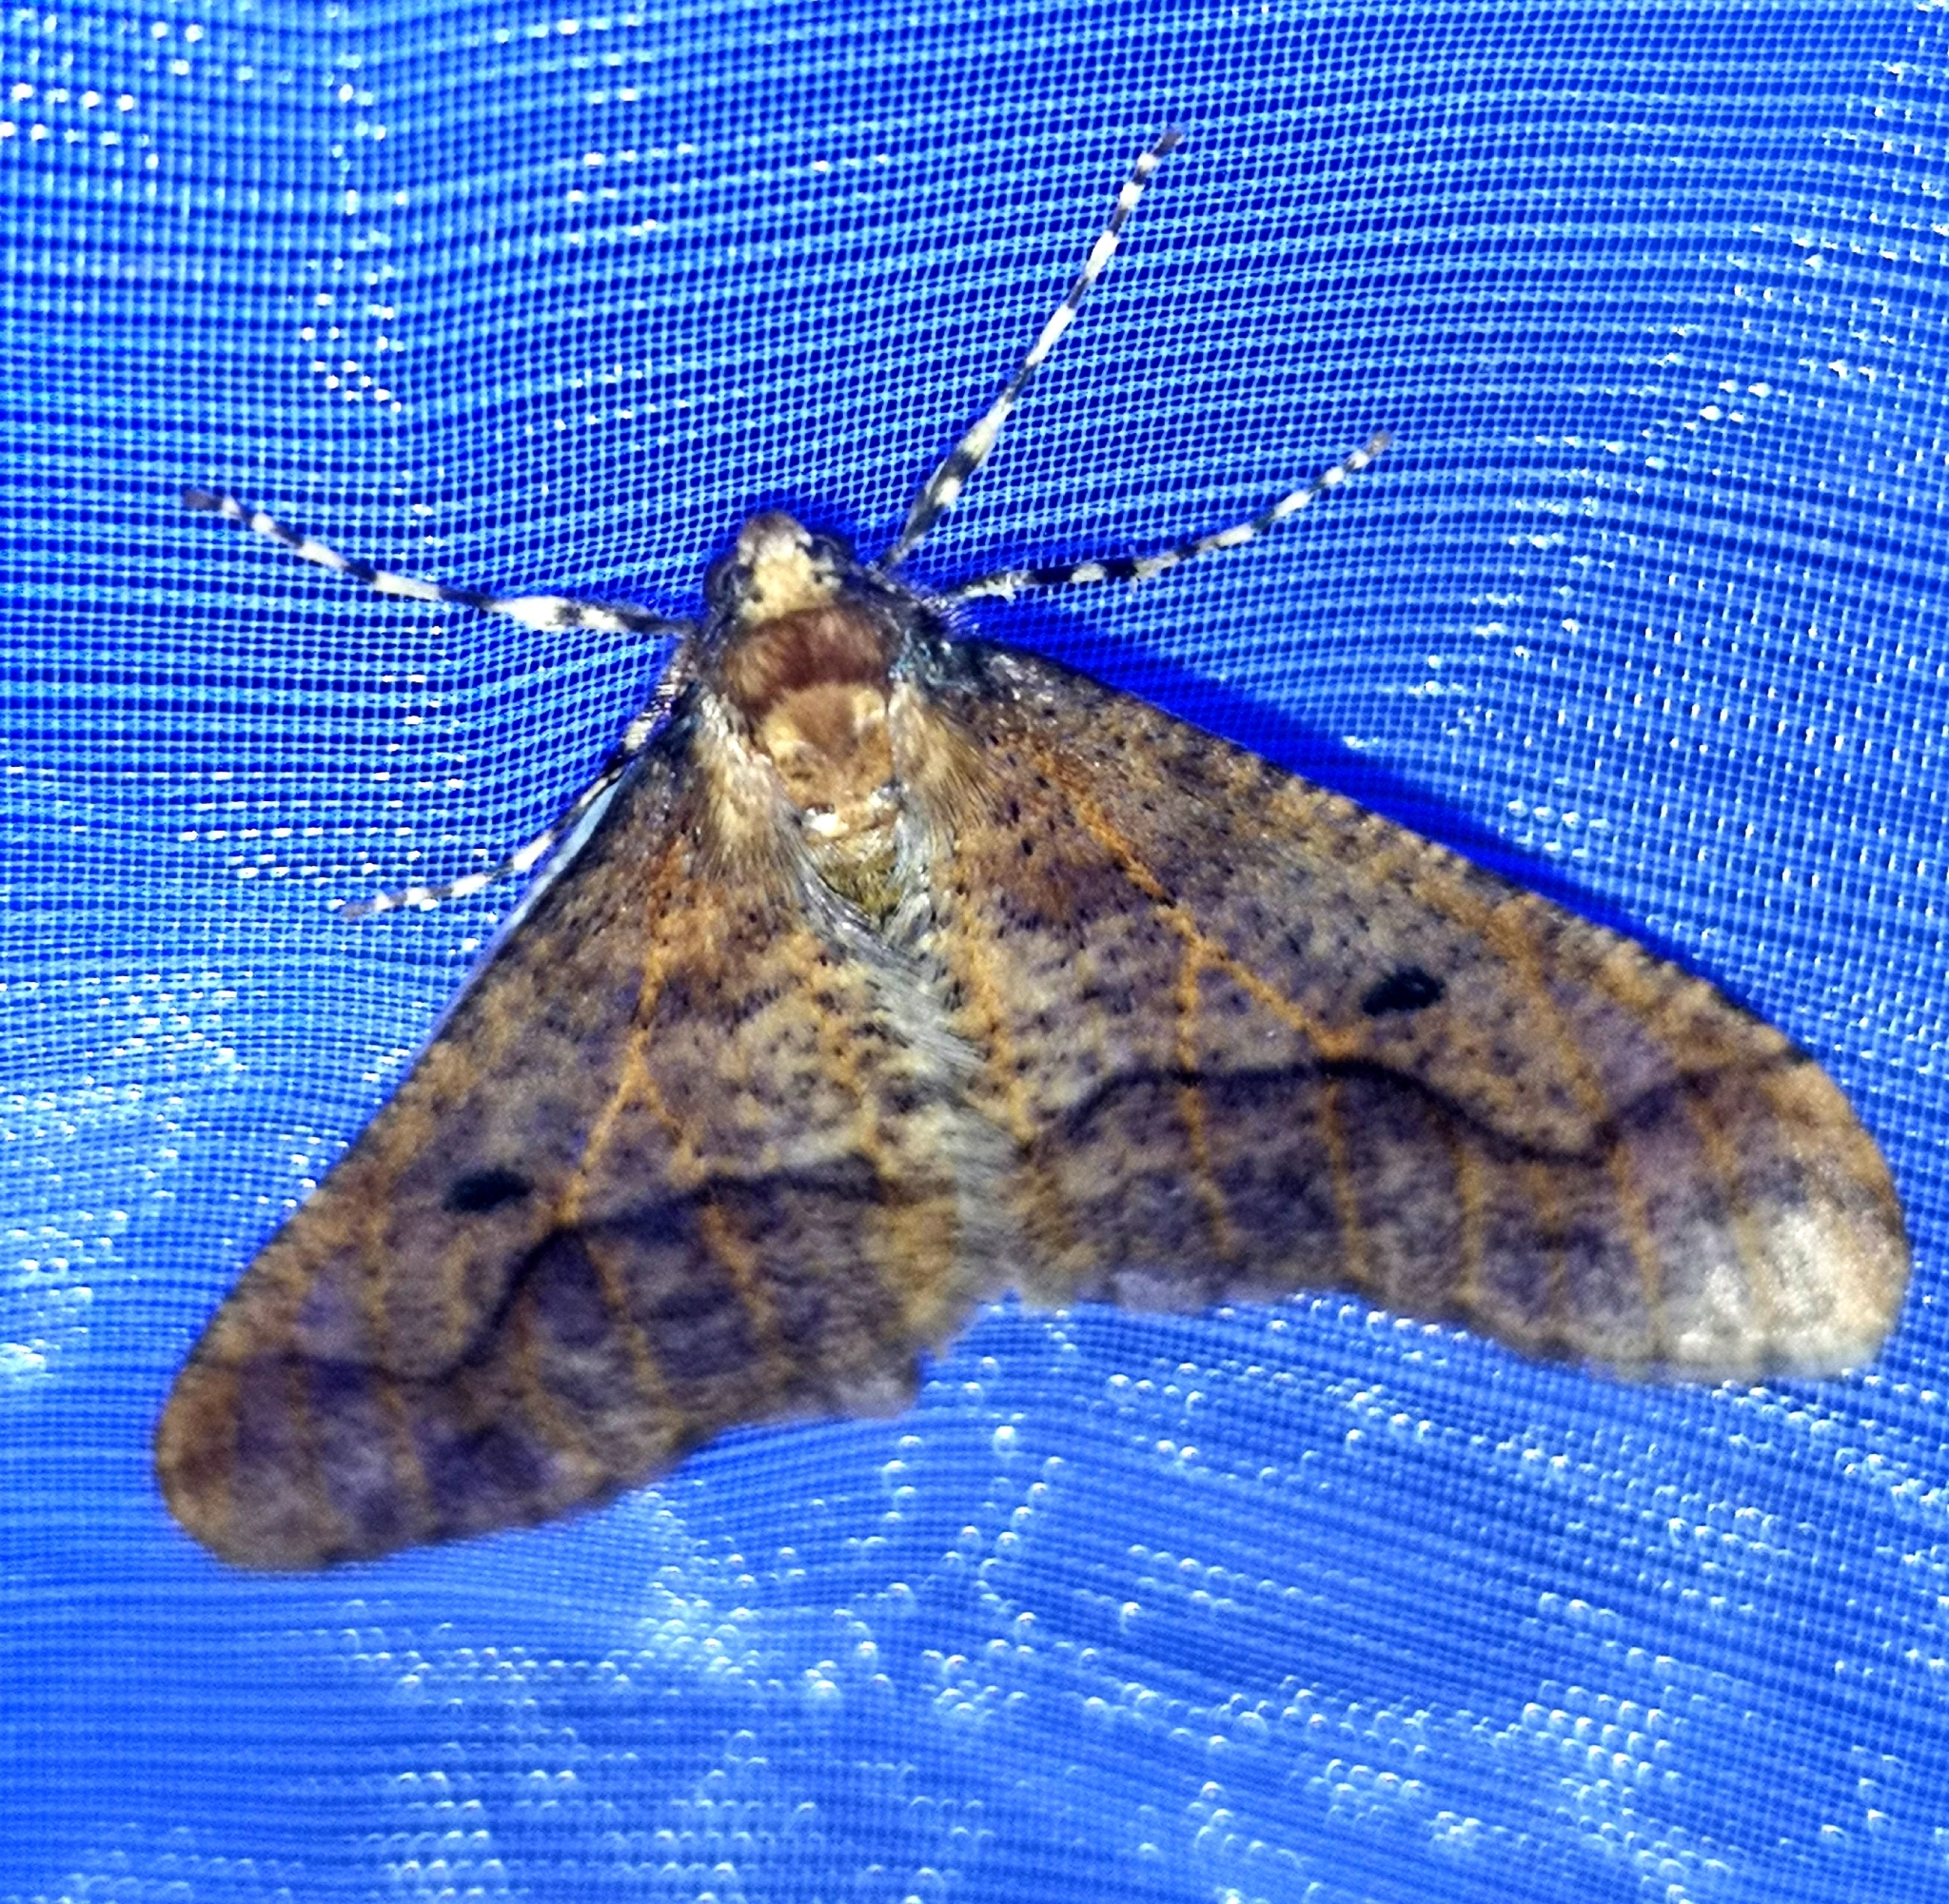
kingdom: Animalia
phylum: Arthropoda
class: Insecta
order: Lepidoptera
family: Geometridae
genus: Erannis
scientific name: Erannis defoliaria
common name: Mottled umber
